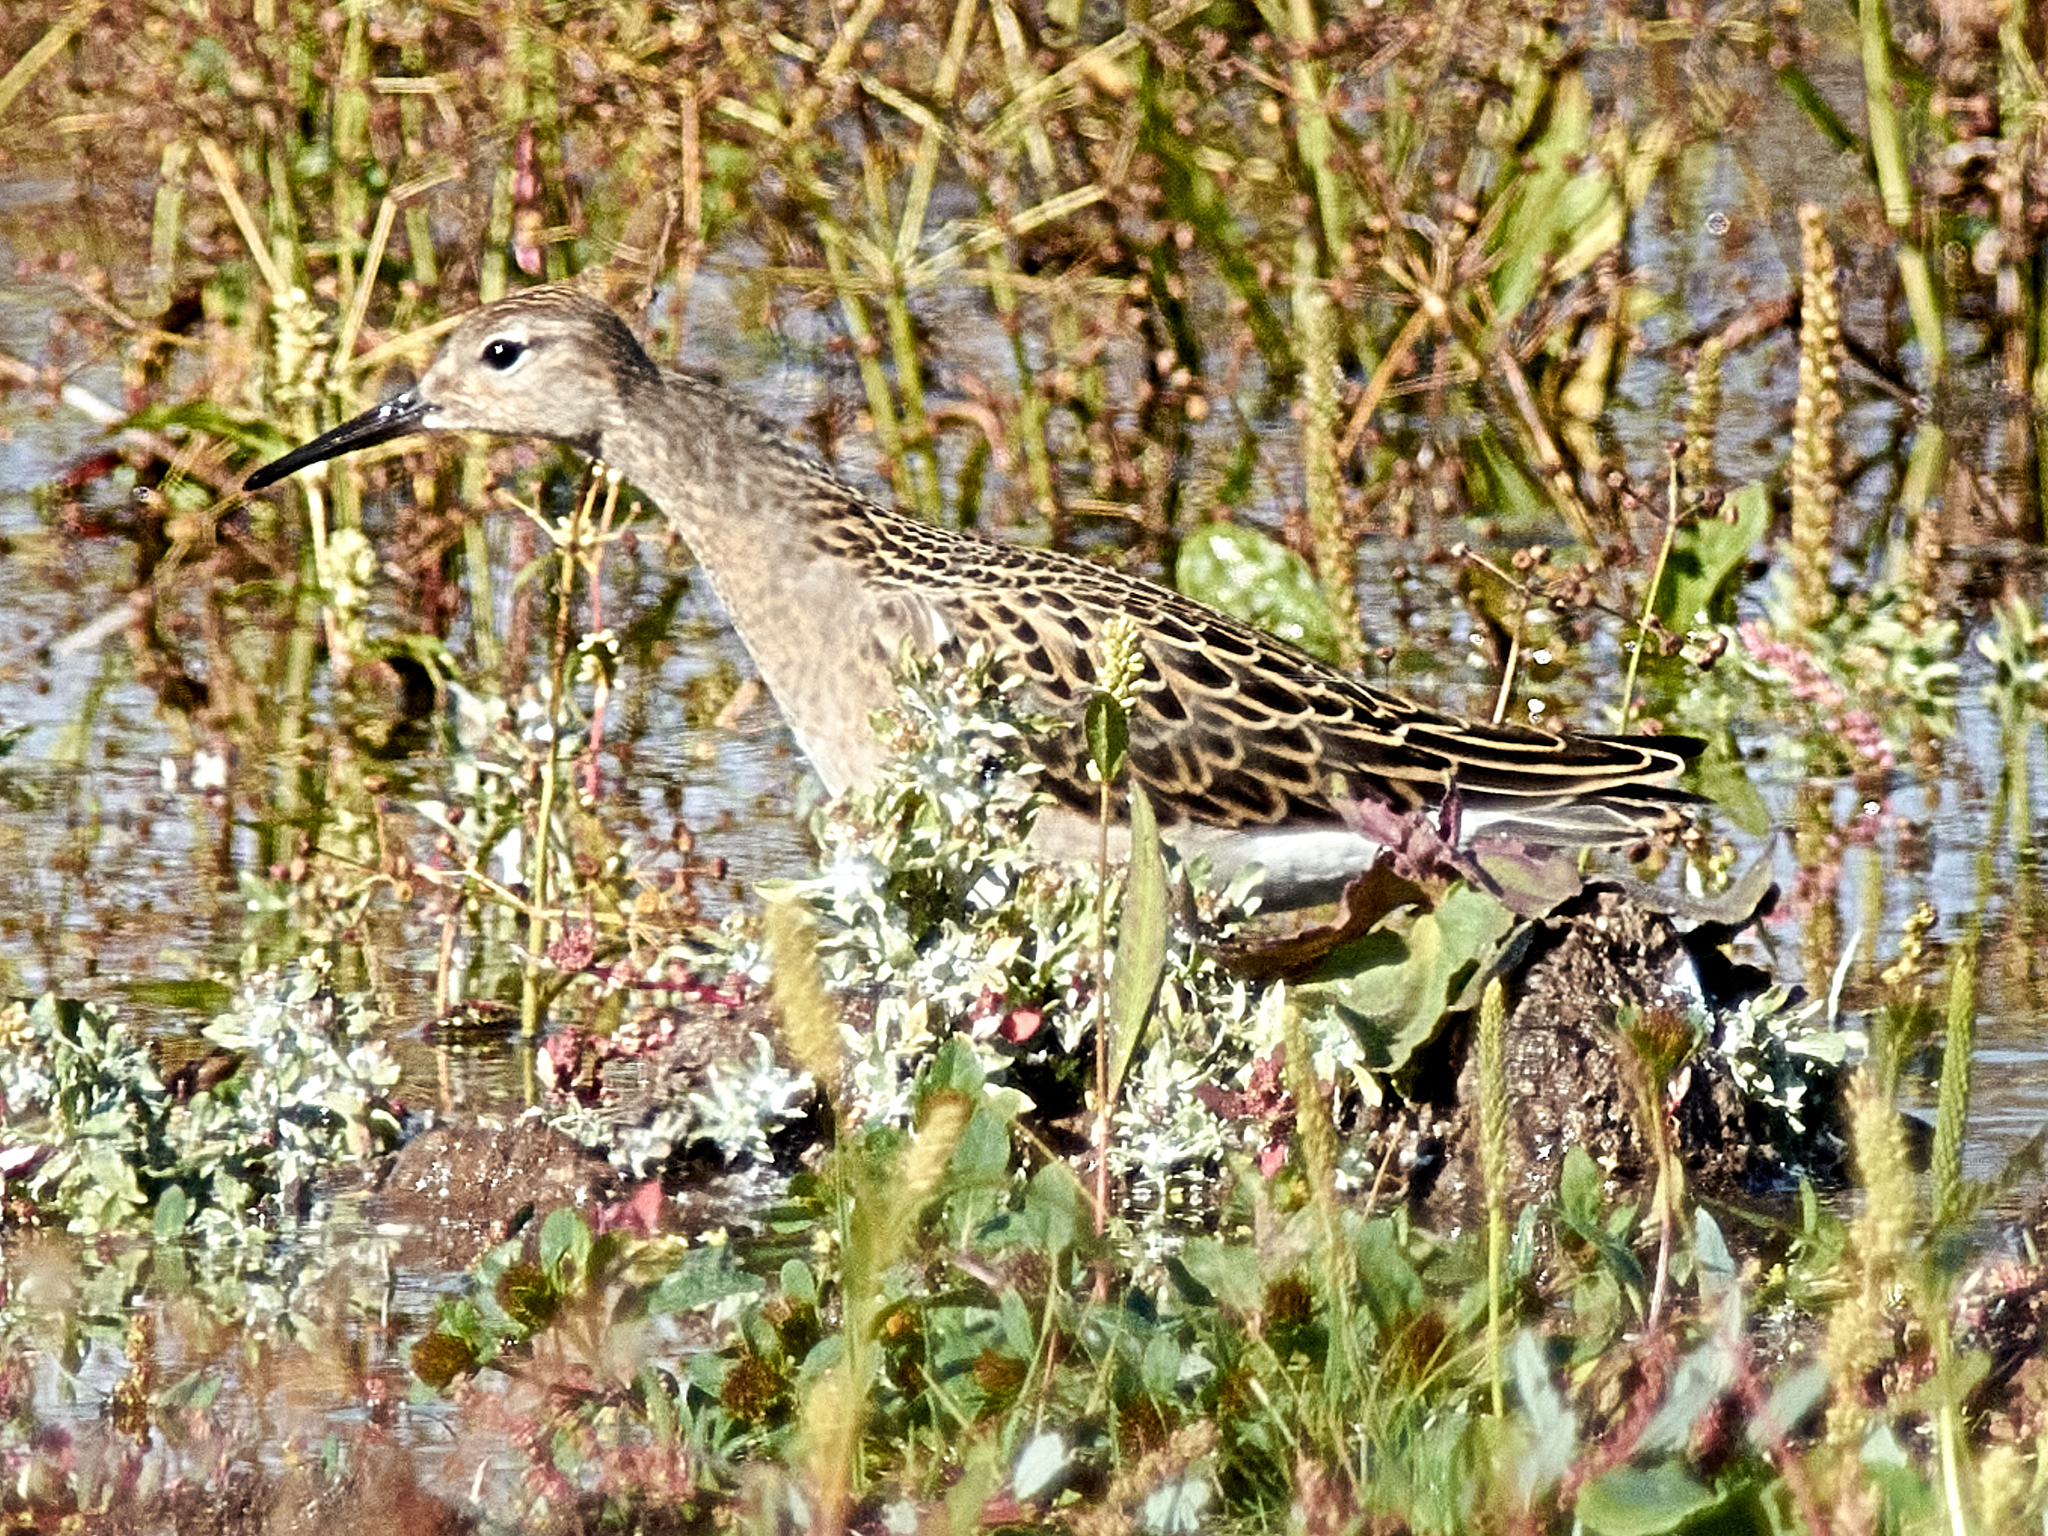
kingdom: Animalia
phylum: Chordata
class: Aves
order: Charadriiformes
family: Scolopacidae
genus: Calidris
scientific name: Calidris pugnax
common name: Ruff
